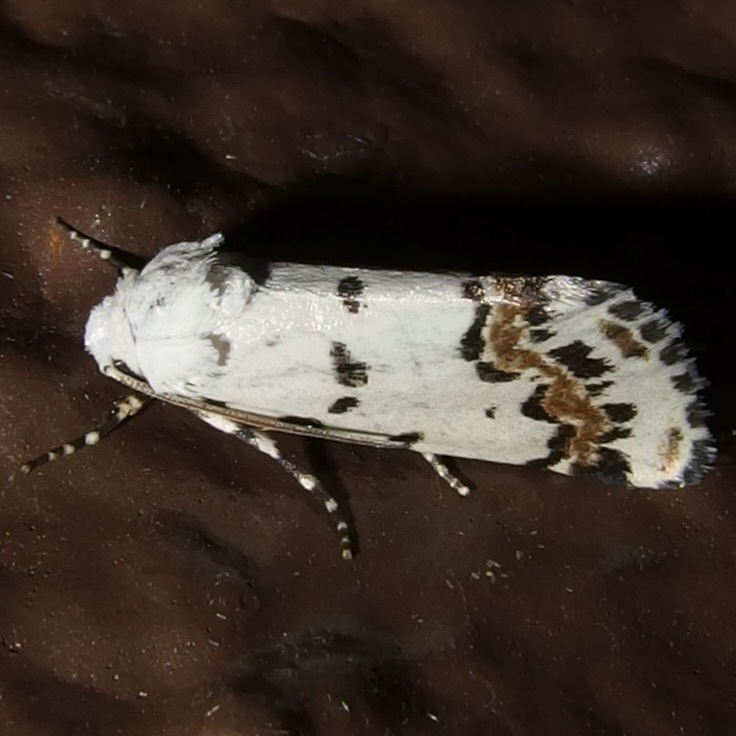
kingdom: Animalia
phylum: Arthropoda
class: Insecta
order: Lepidoptera
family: Noctuidae
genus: Grotella
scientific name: Grotella tricolor
